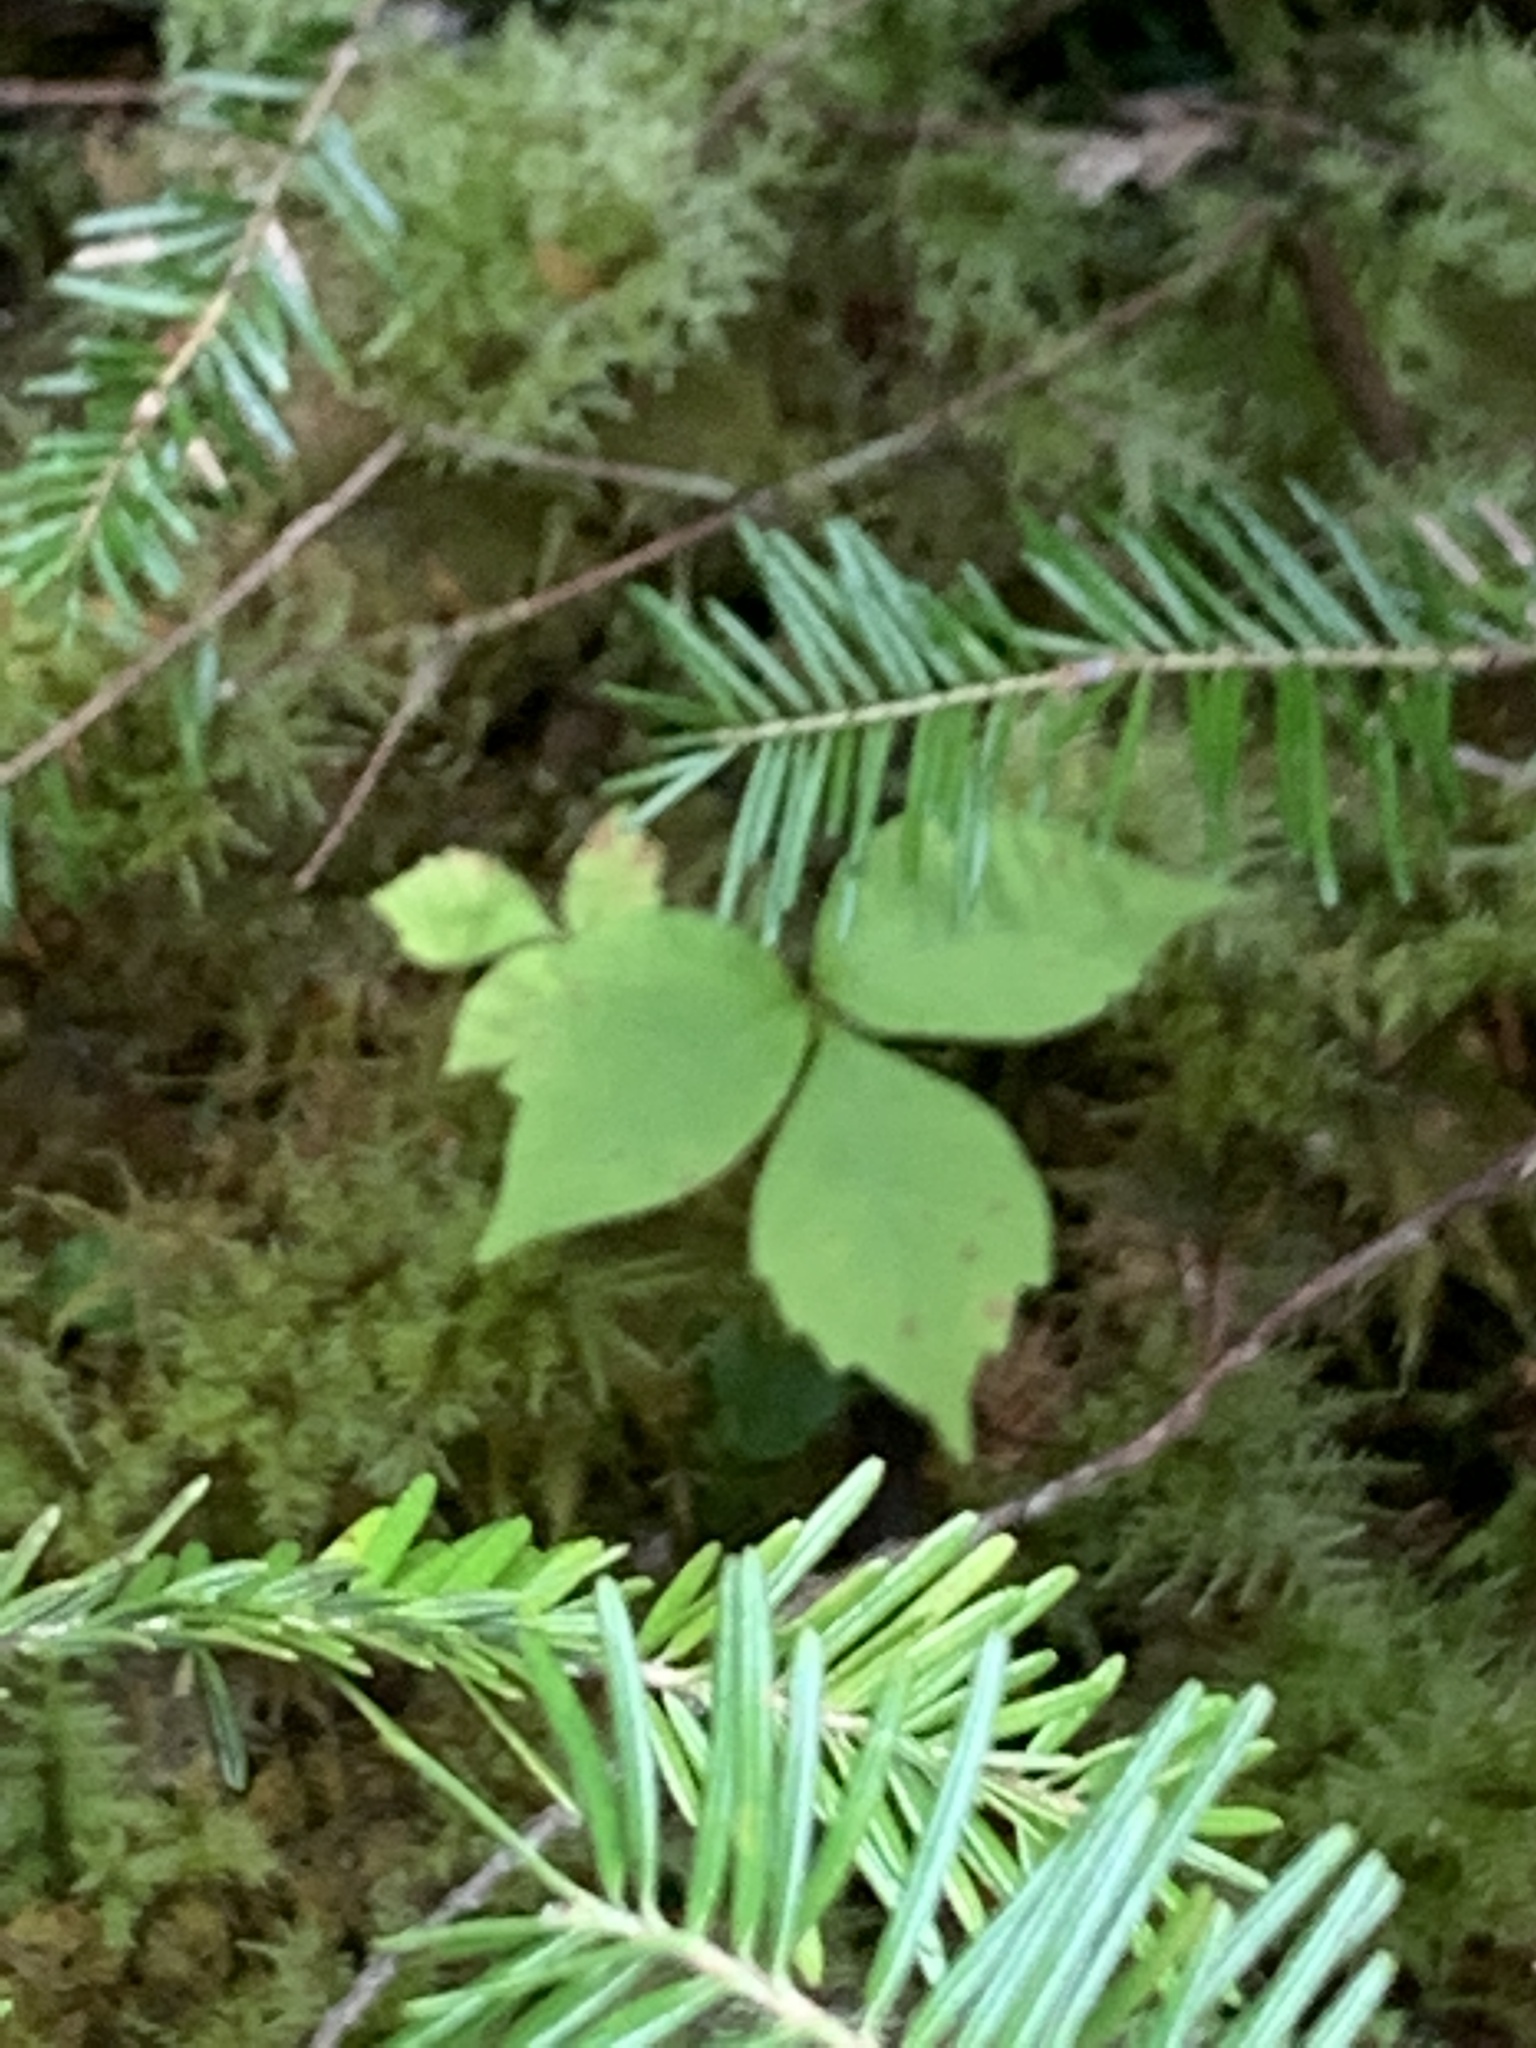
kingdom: Plantae
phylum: Tracheophyta
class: Liliopsida
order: Alismatales
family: Araceae
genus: Arisaema
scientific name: Arisaema triphyllum
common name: Jack-in-the-pulpit
